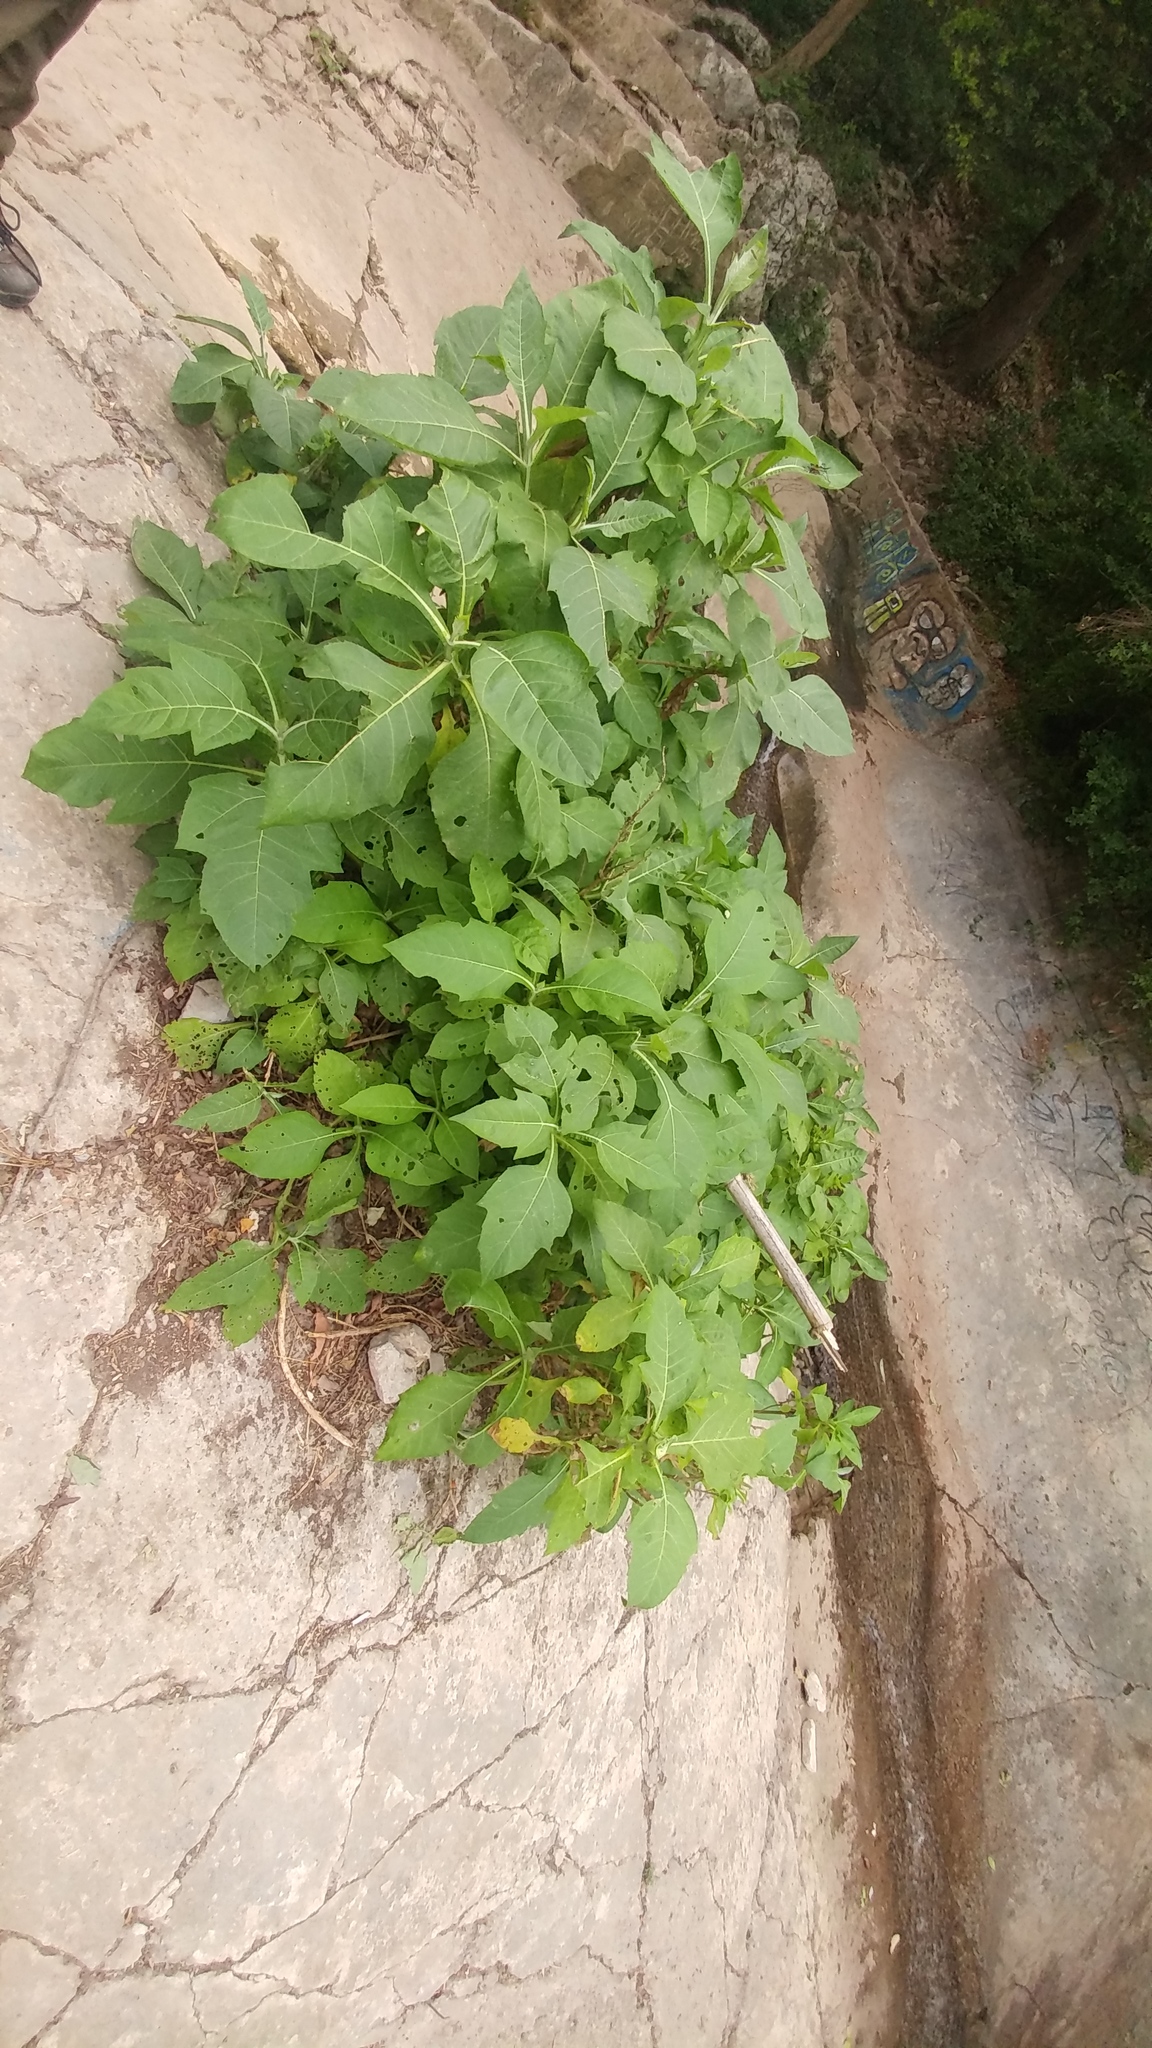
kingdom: Plantae
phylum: Tracheophyta
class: Magnoliopsida
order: Asterales
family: Asteraceae
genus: Verbesina
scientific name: Verbesina olsenii
